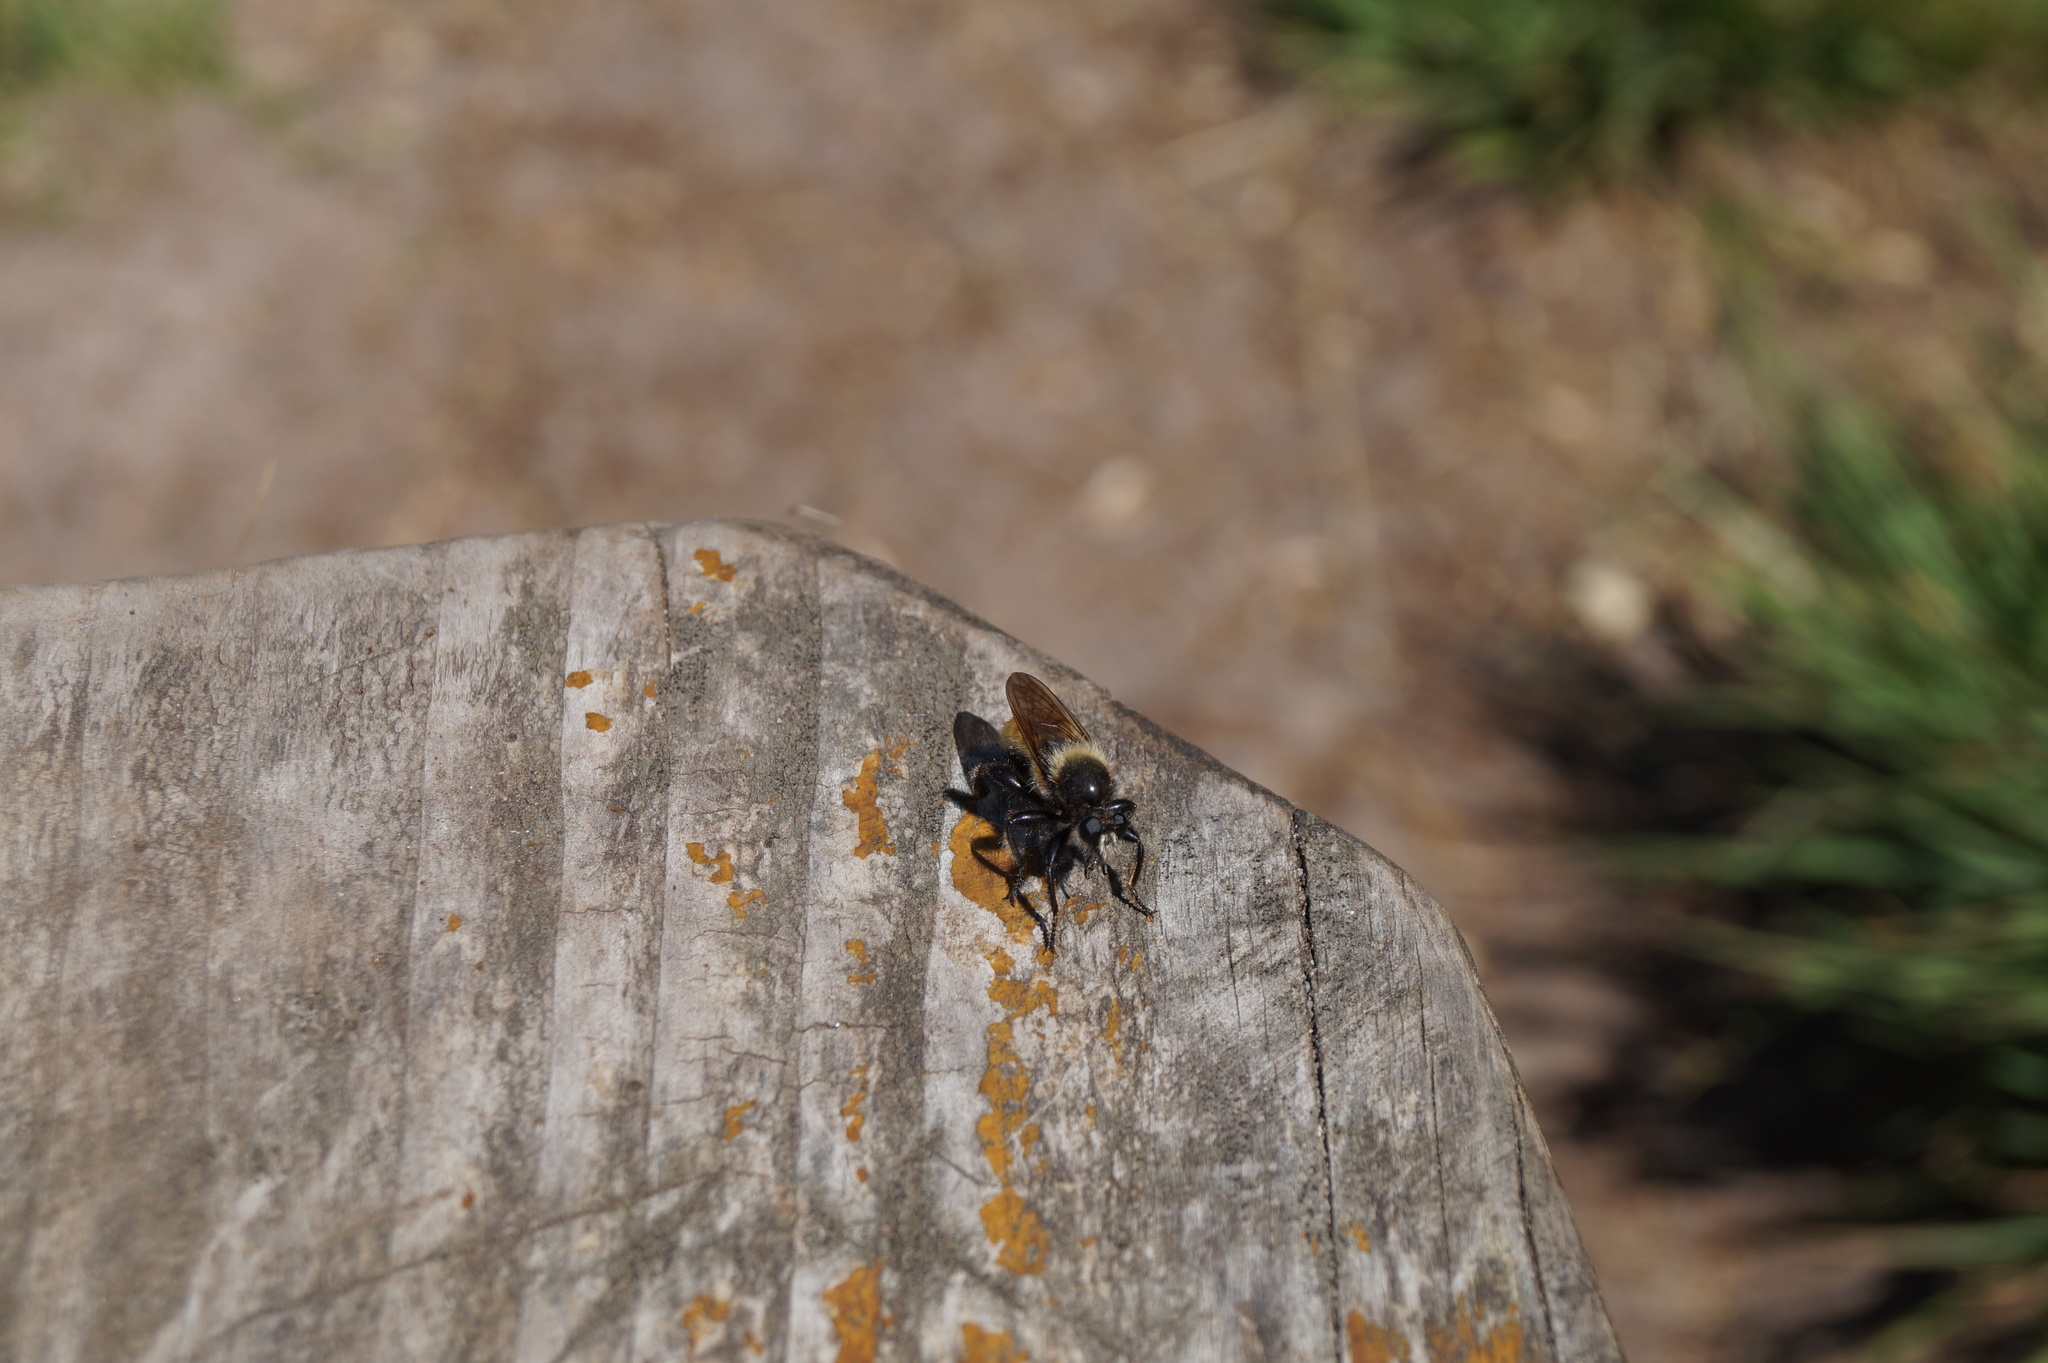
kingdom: Animalia
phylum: Arthropoda
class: Insecta
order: Diptera
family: Asilidae
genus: Laphria
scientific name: Laphria flava
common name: Bumblebee robberfly
